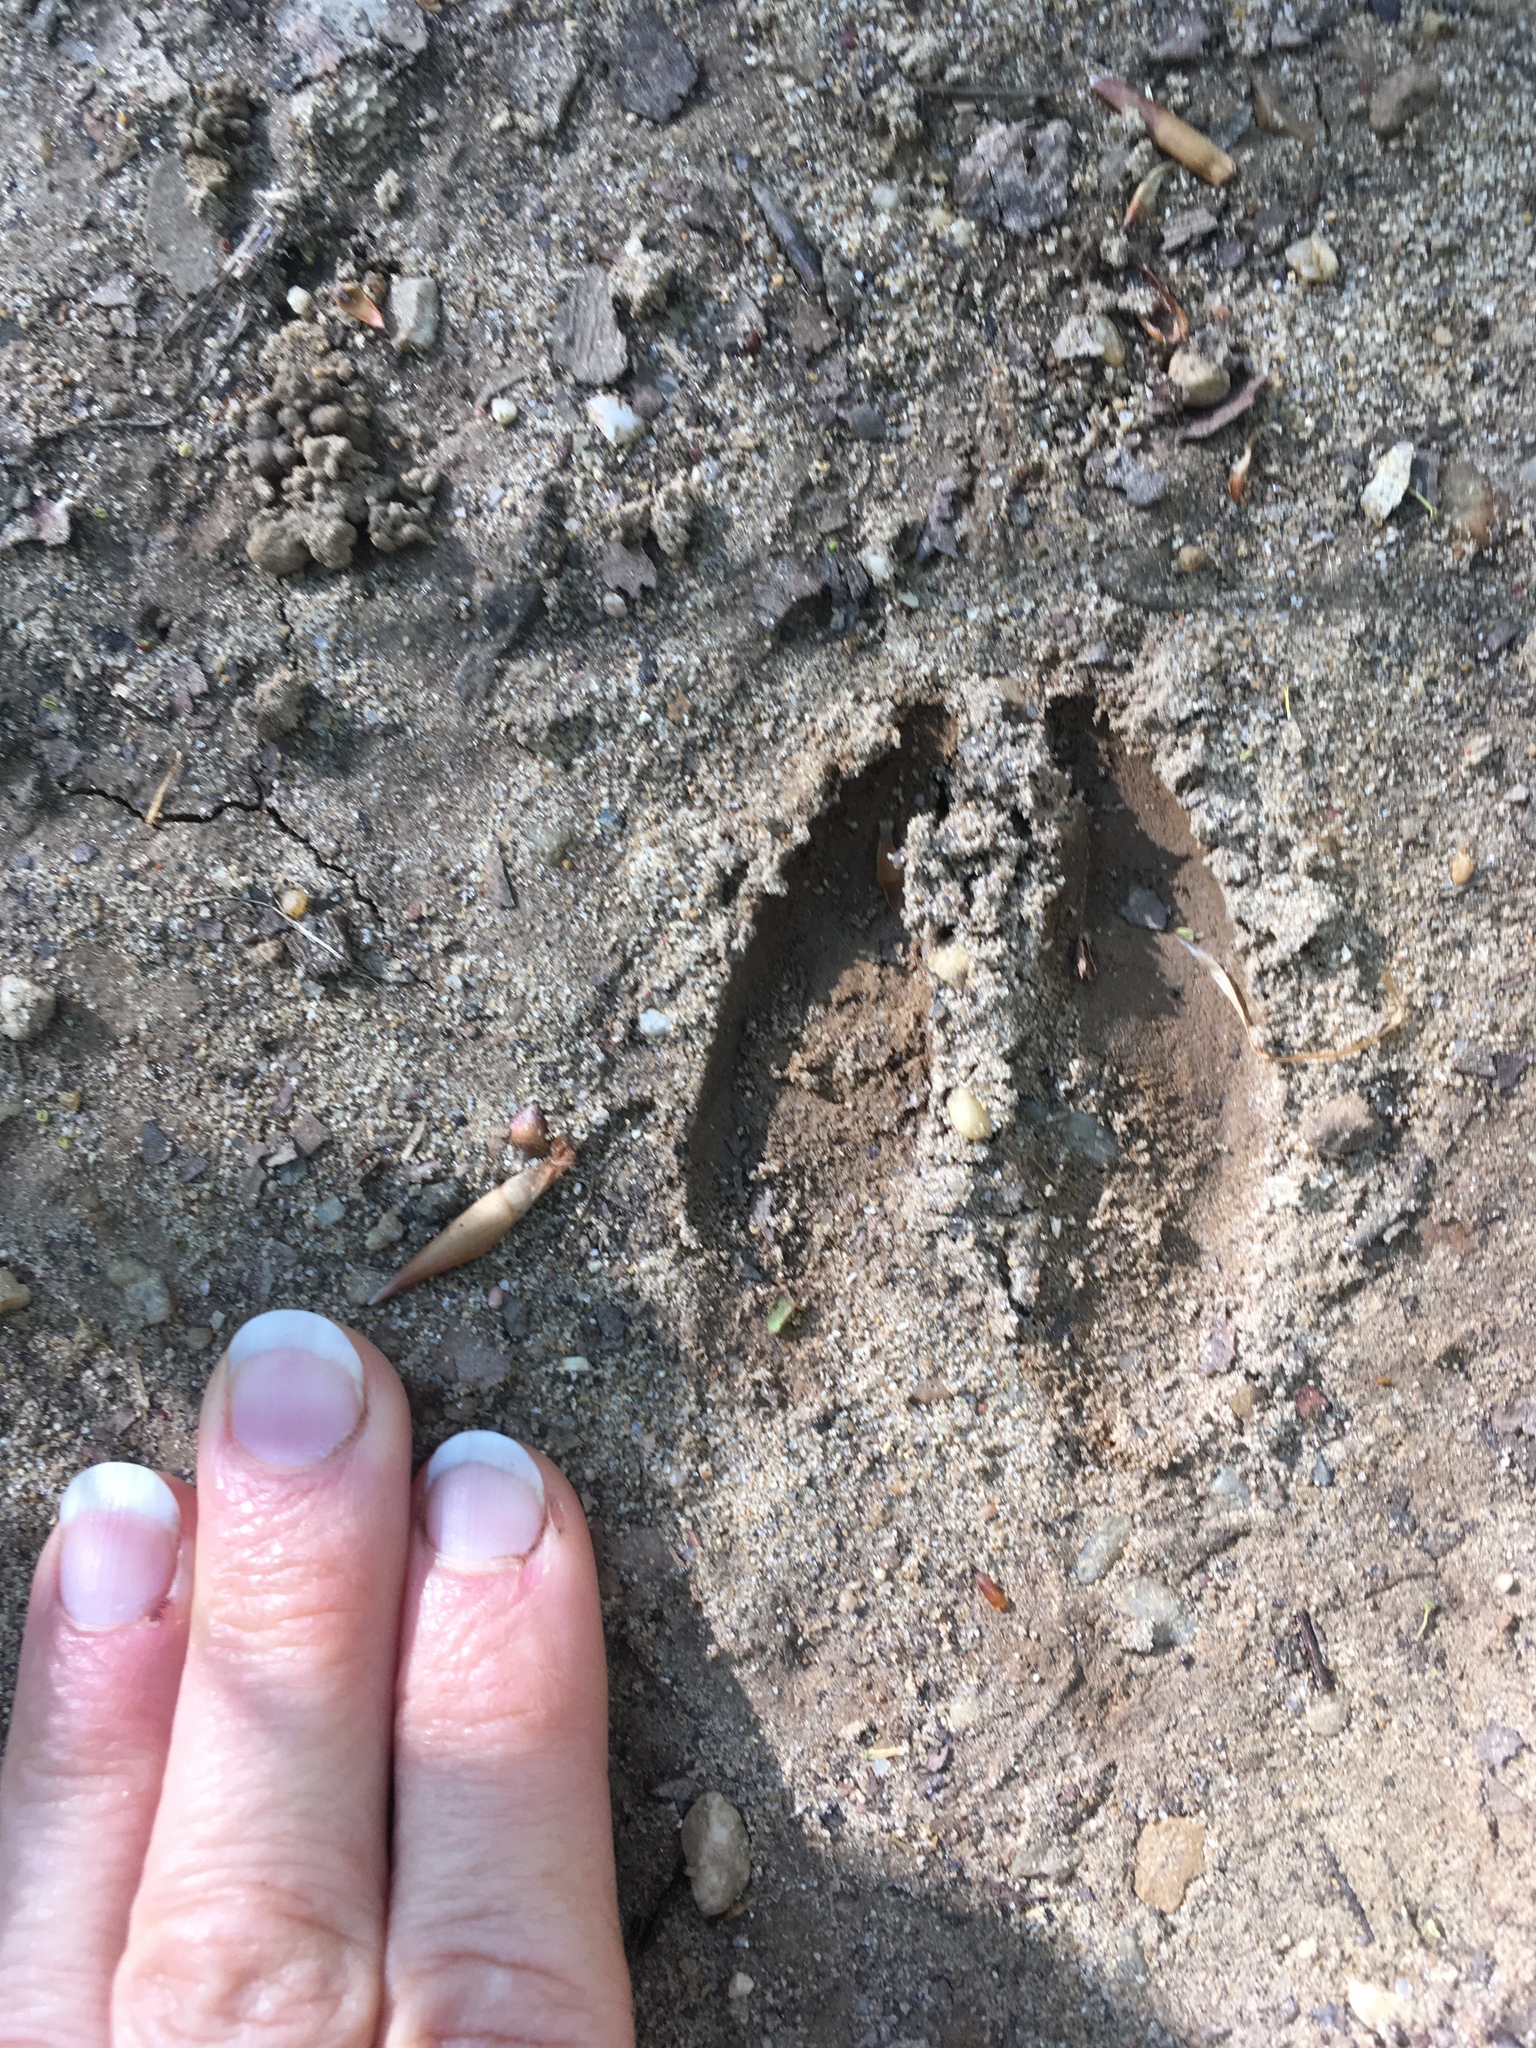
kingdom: Animalia
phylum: Chordata
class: Mammalia
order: Artiodactyla
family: Cervidae
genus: Odocoileus
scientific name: Odocoileus virginianus
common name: White-tailed deer
